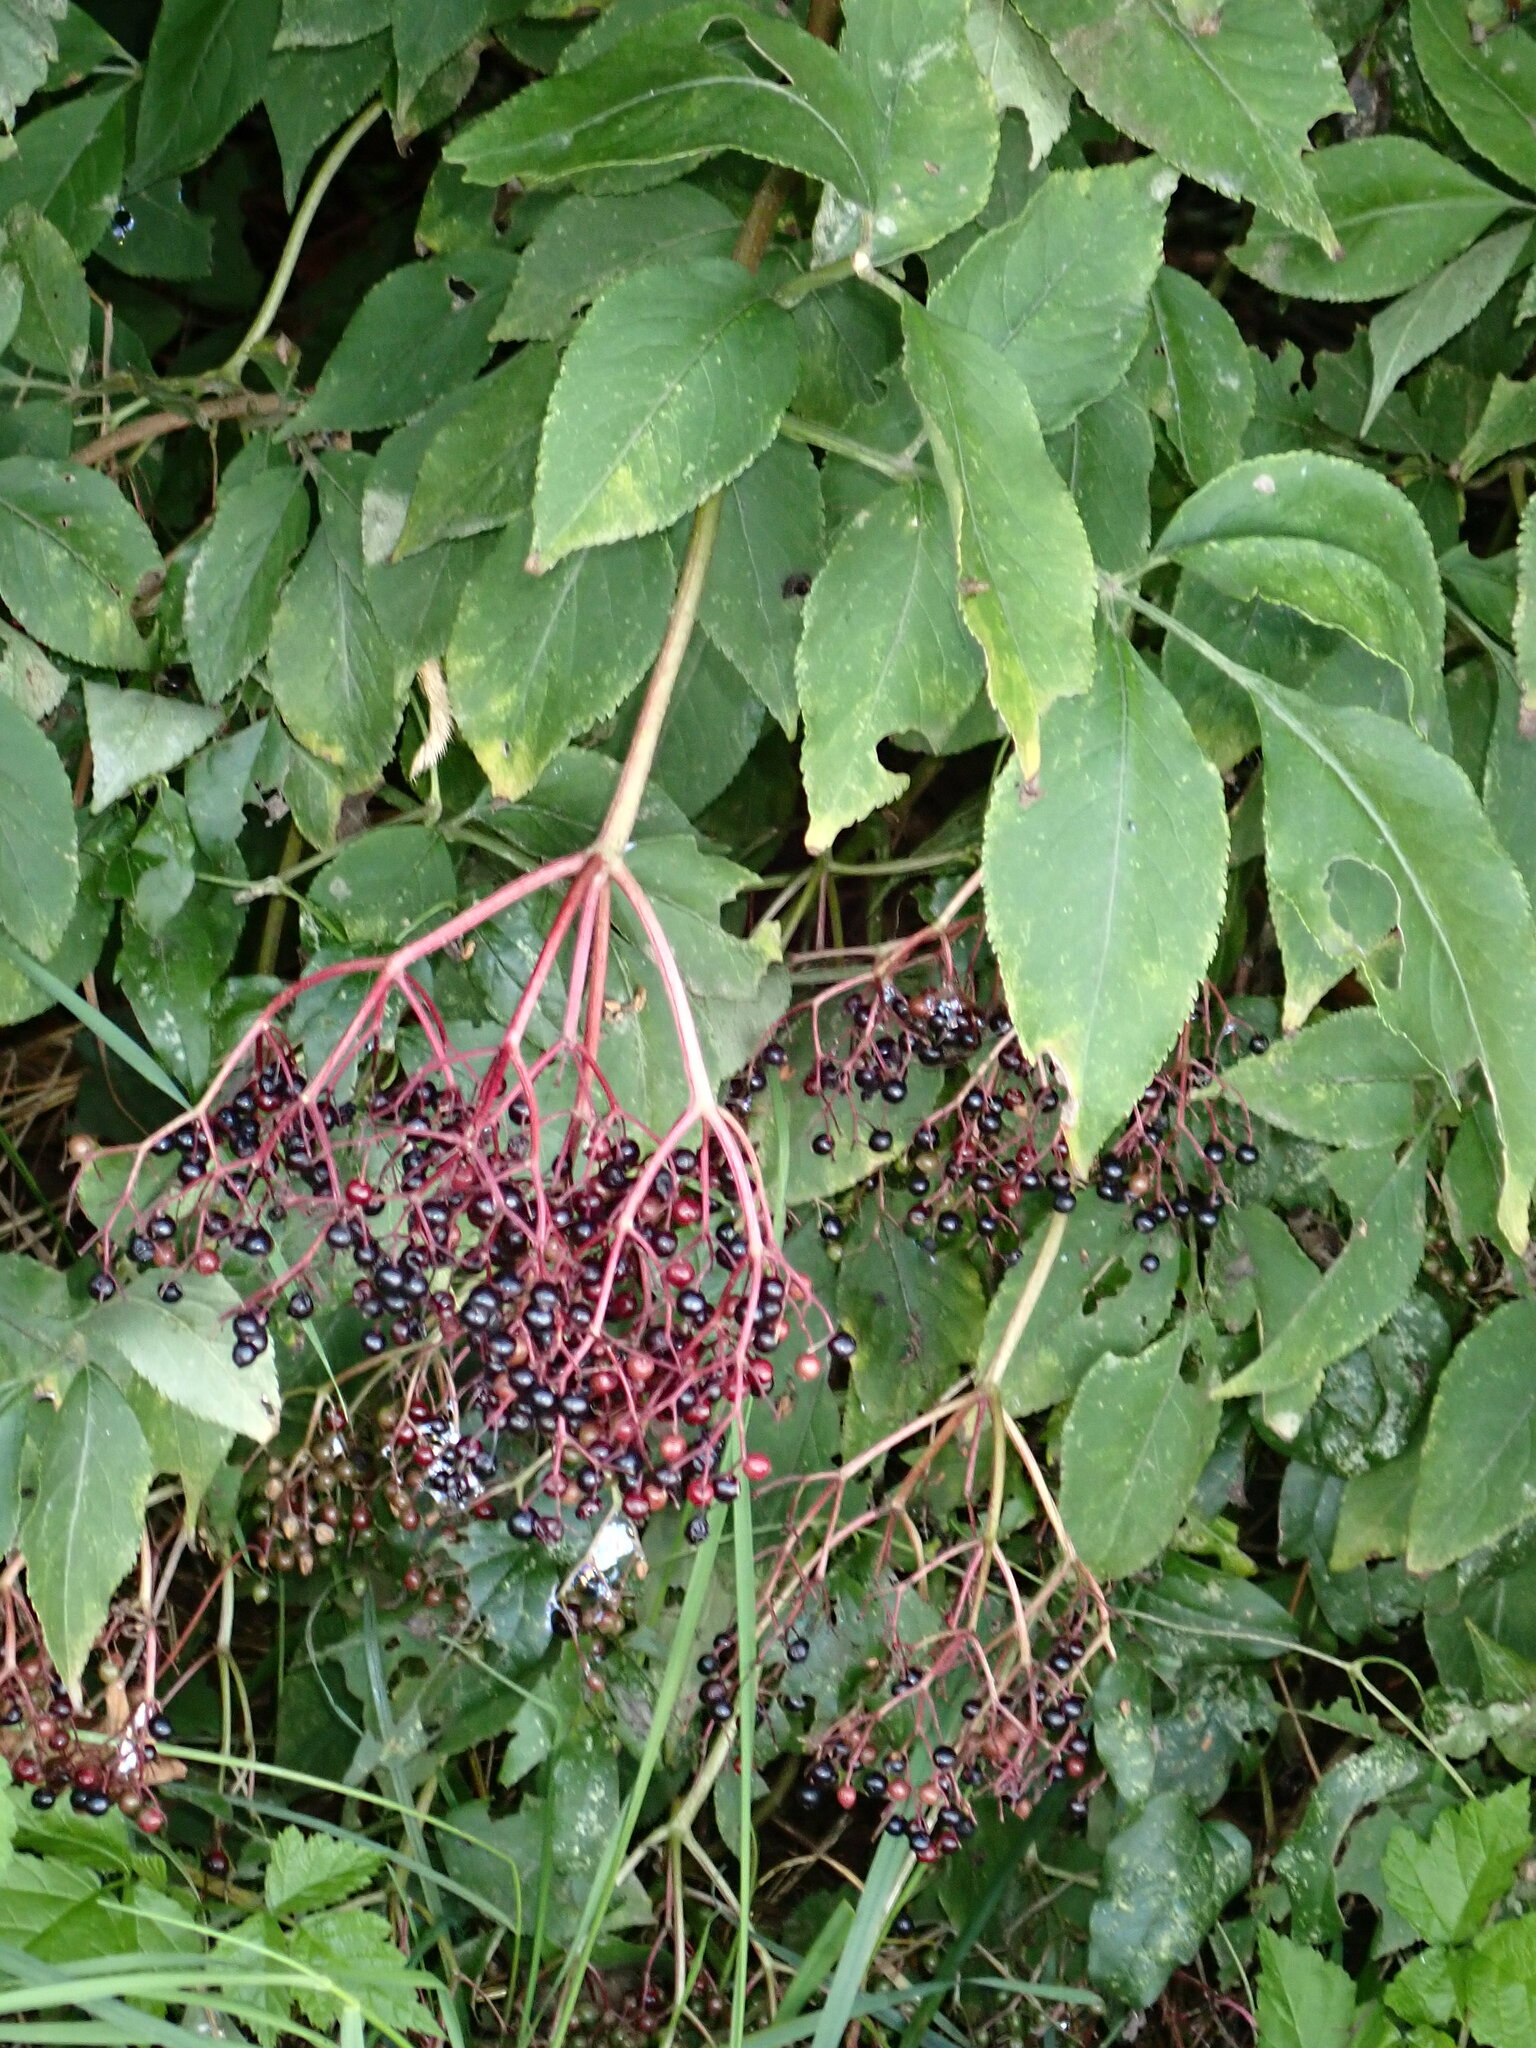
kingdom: Plantae
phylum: Tracheophyta
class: Magnoliopsida
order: Dipsacales
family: Viburnaceae
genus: Sambucus
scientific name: Sambucus nigra
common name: Elder
